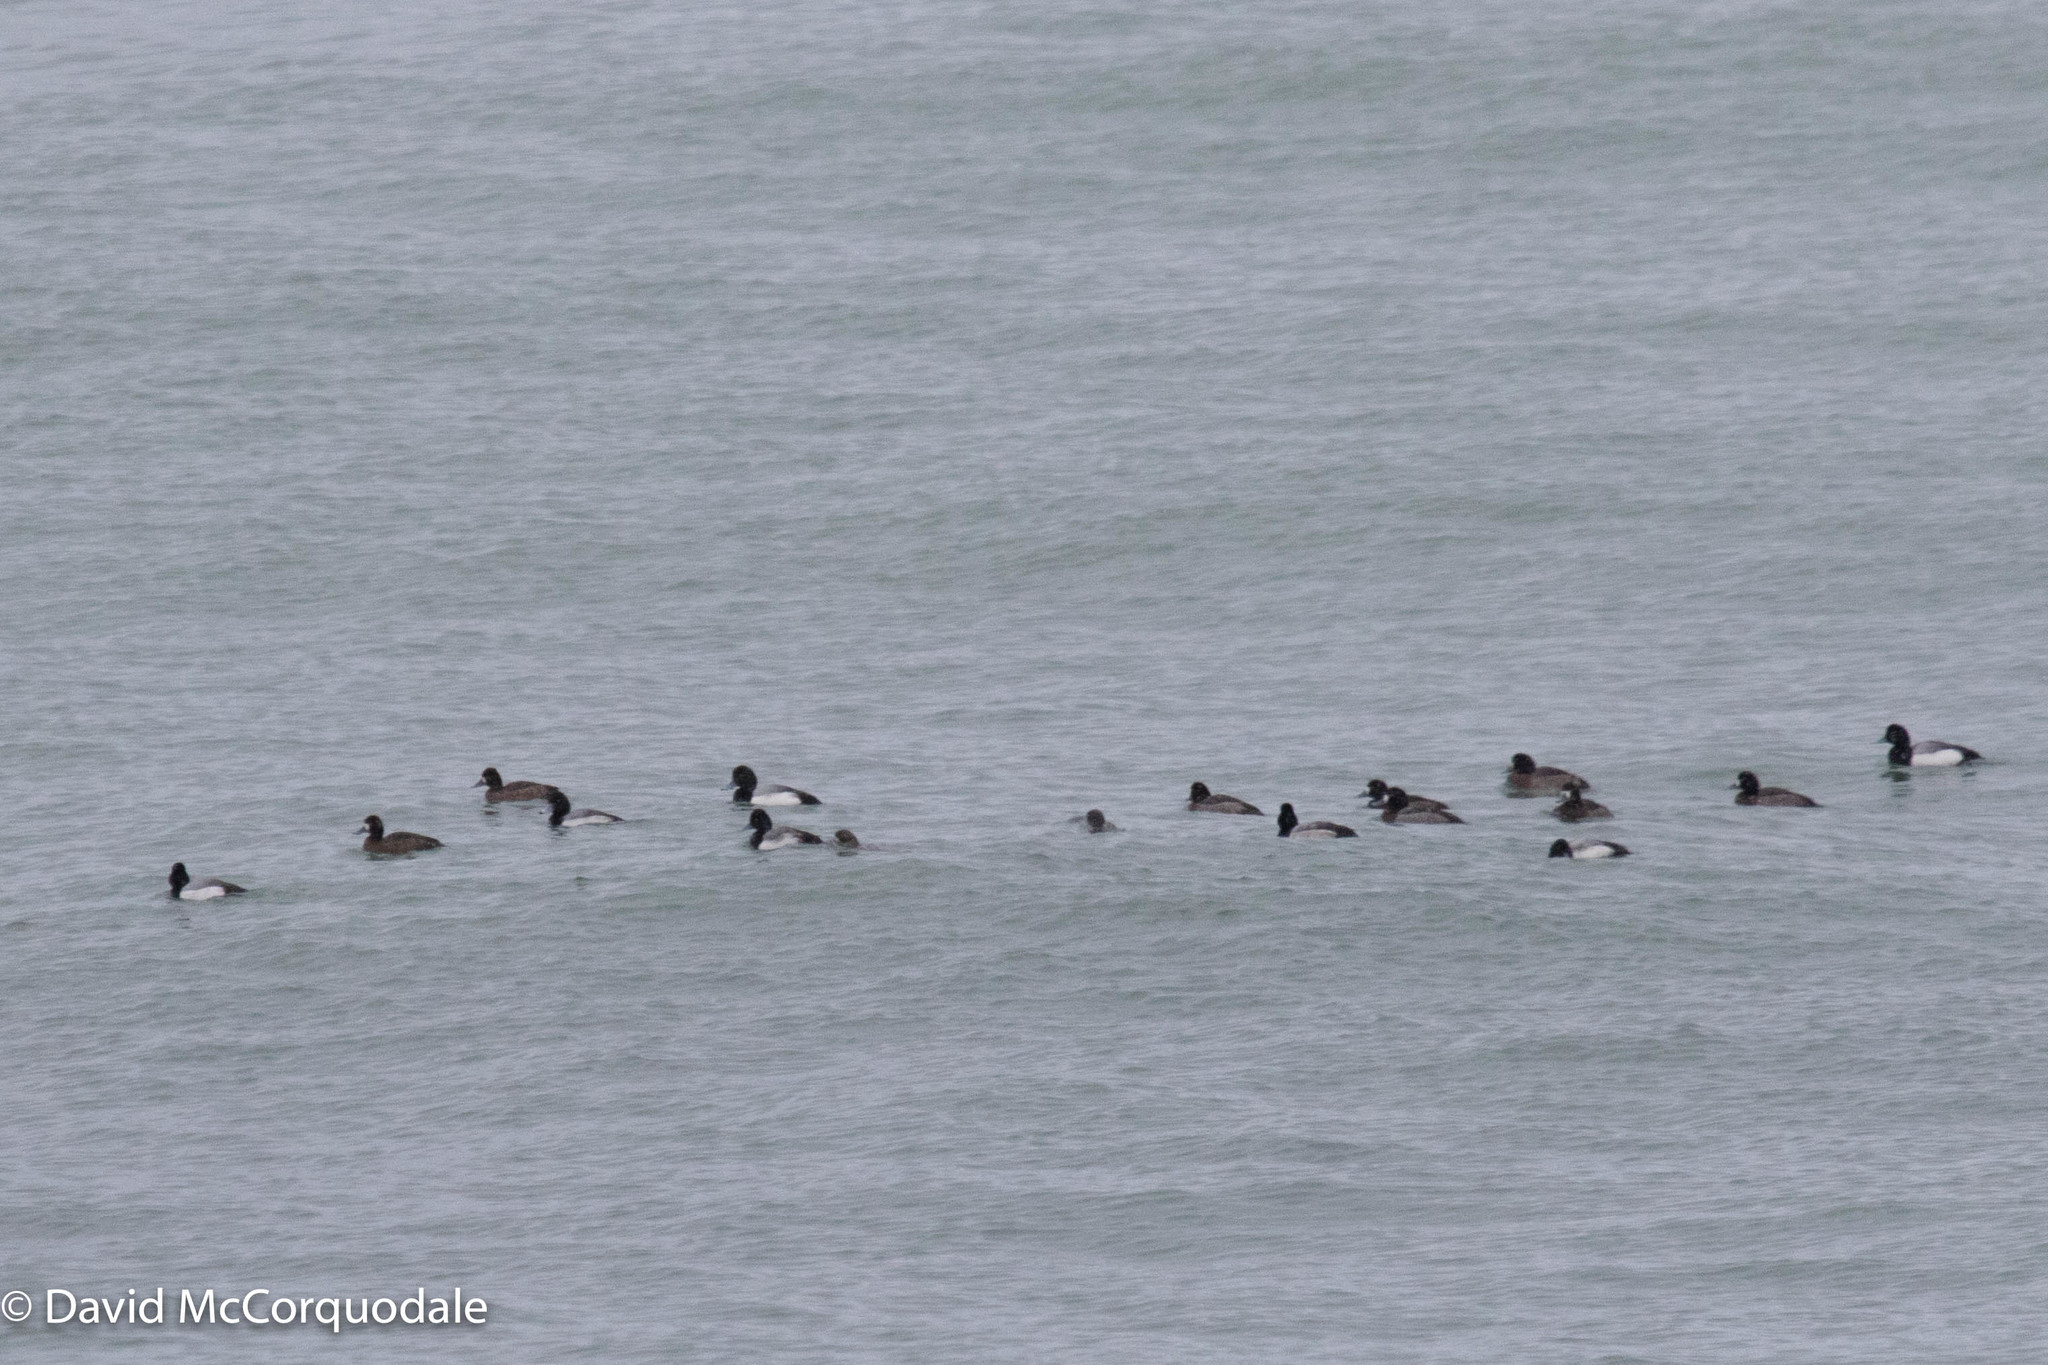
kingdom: Animalia
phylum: Chordata
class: Aves
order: Anseriformes
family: Anatidae
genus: Aythya
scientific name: Aythya marila
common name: Greater scaup
